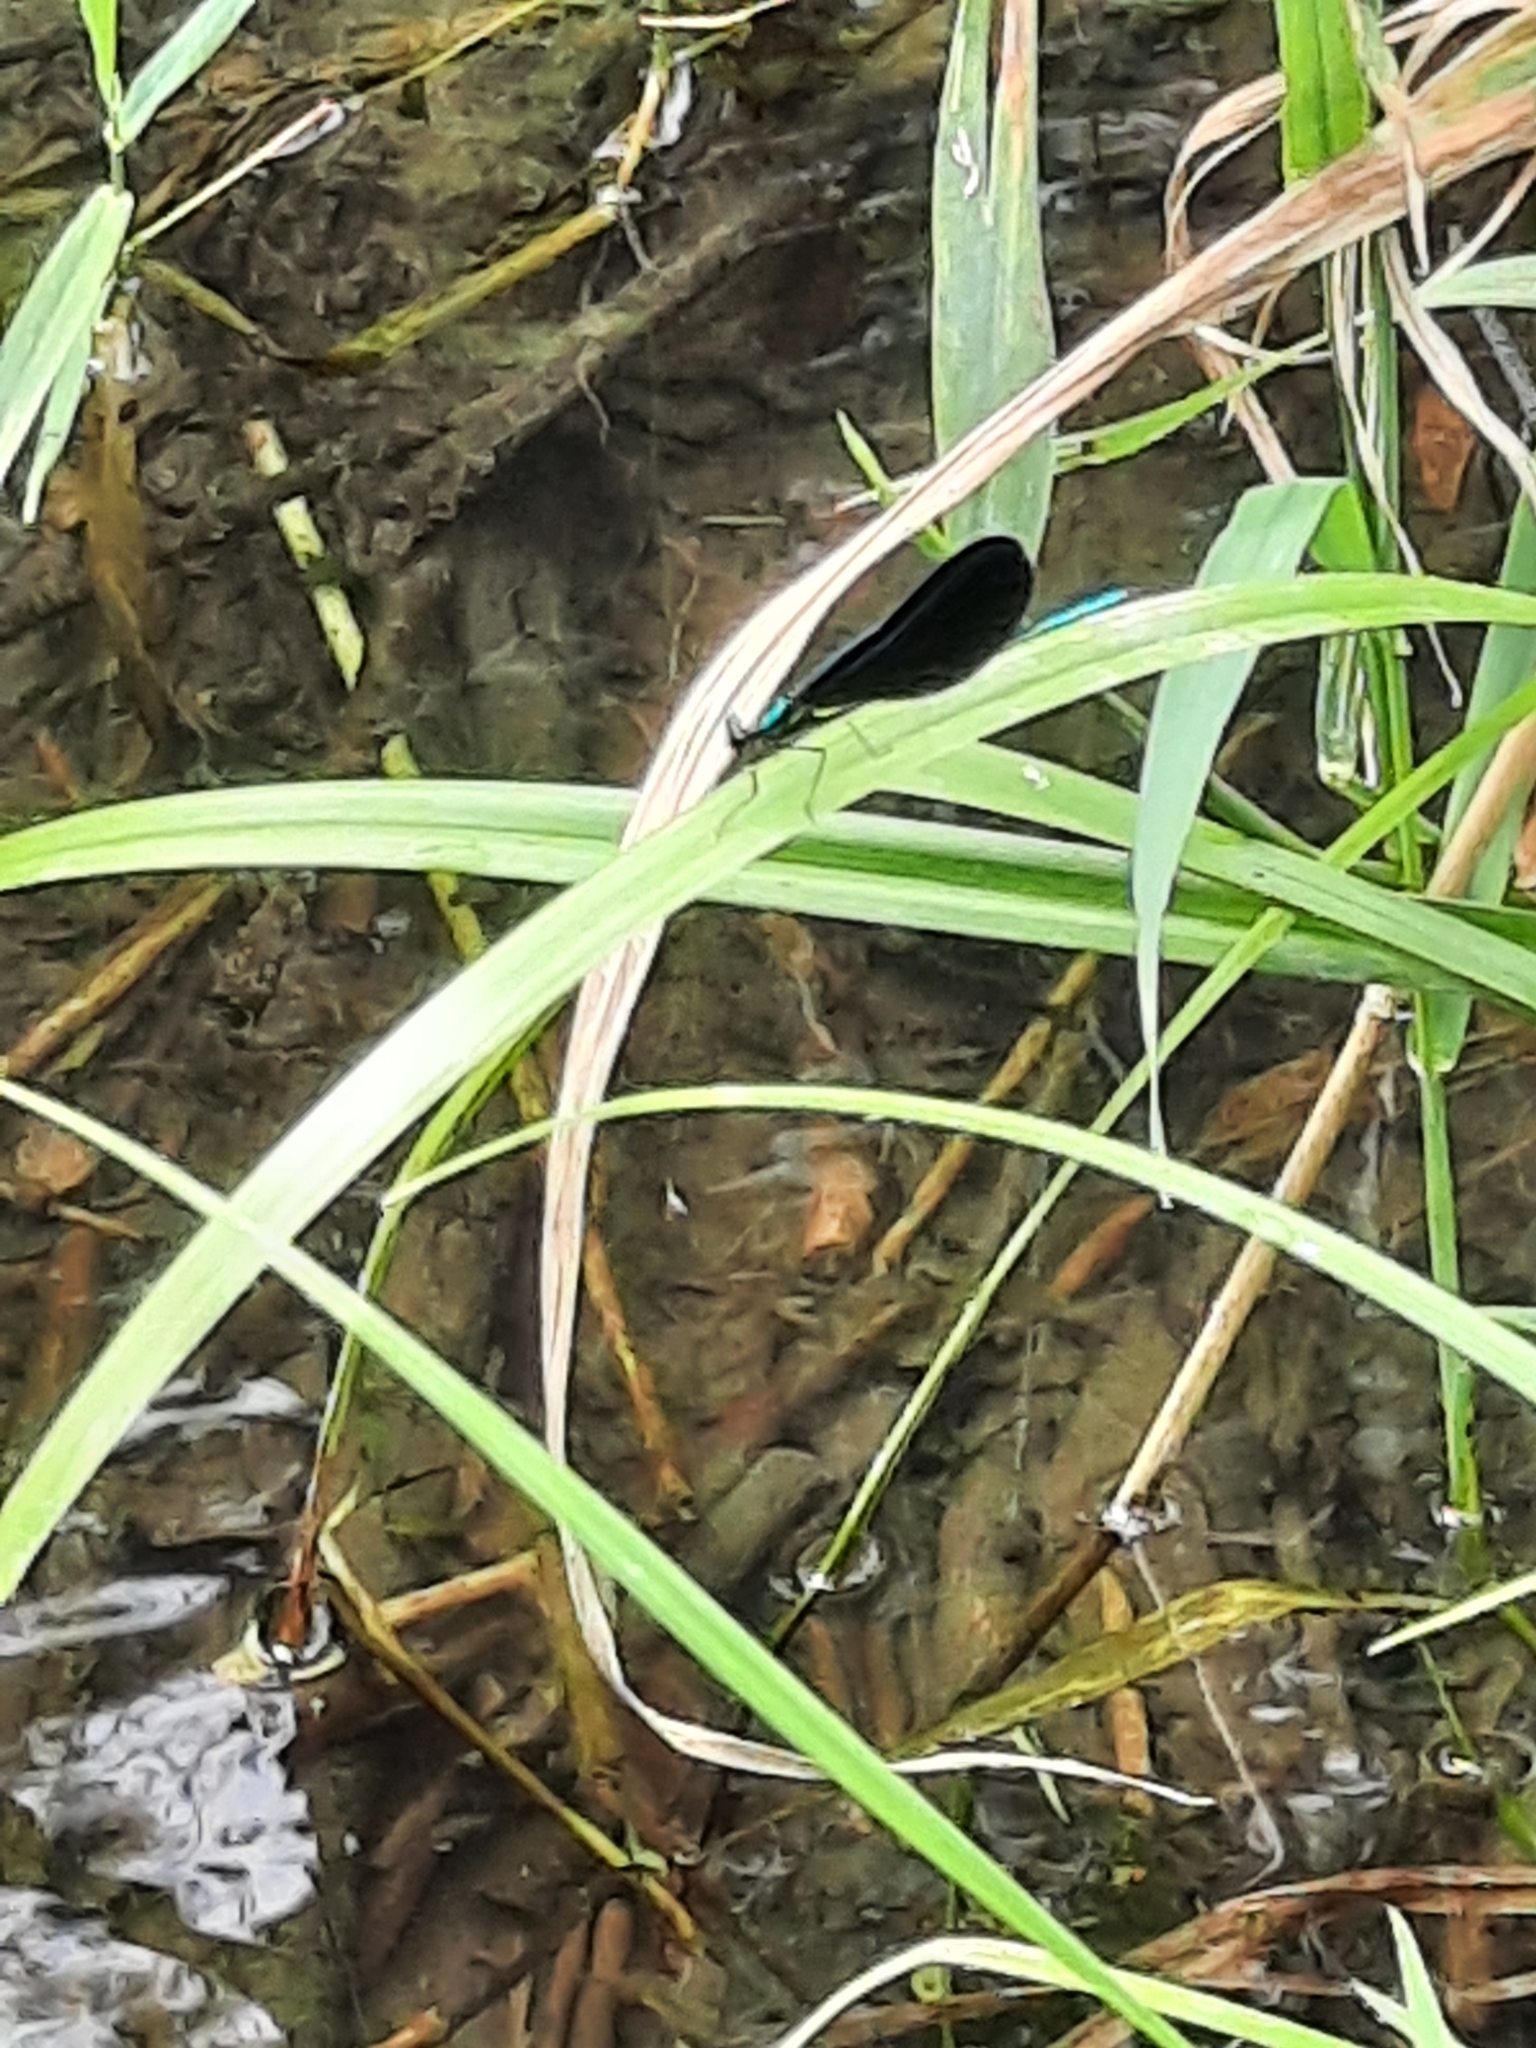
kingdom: Animalia
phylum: Arthropoda
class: Insecta
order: Odonata
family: Calopterygidae
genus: Calopteryx
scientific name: Calopteryx maculata
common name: Ebony jewelwing
